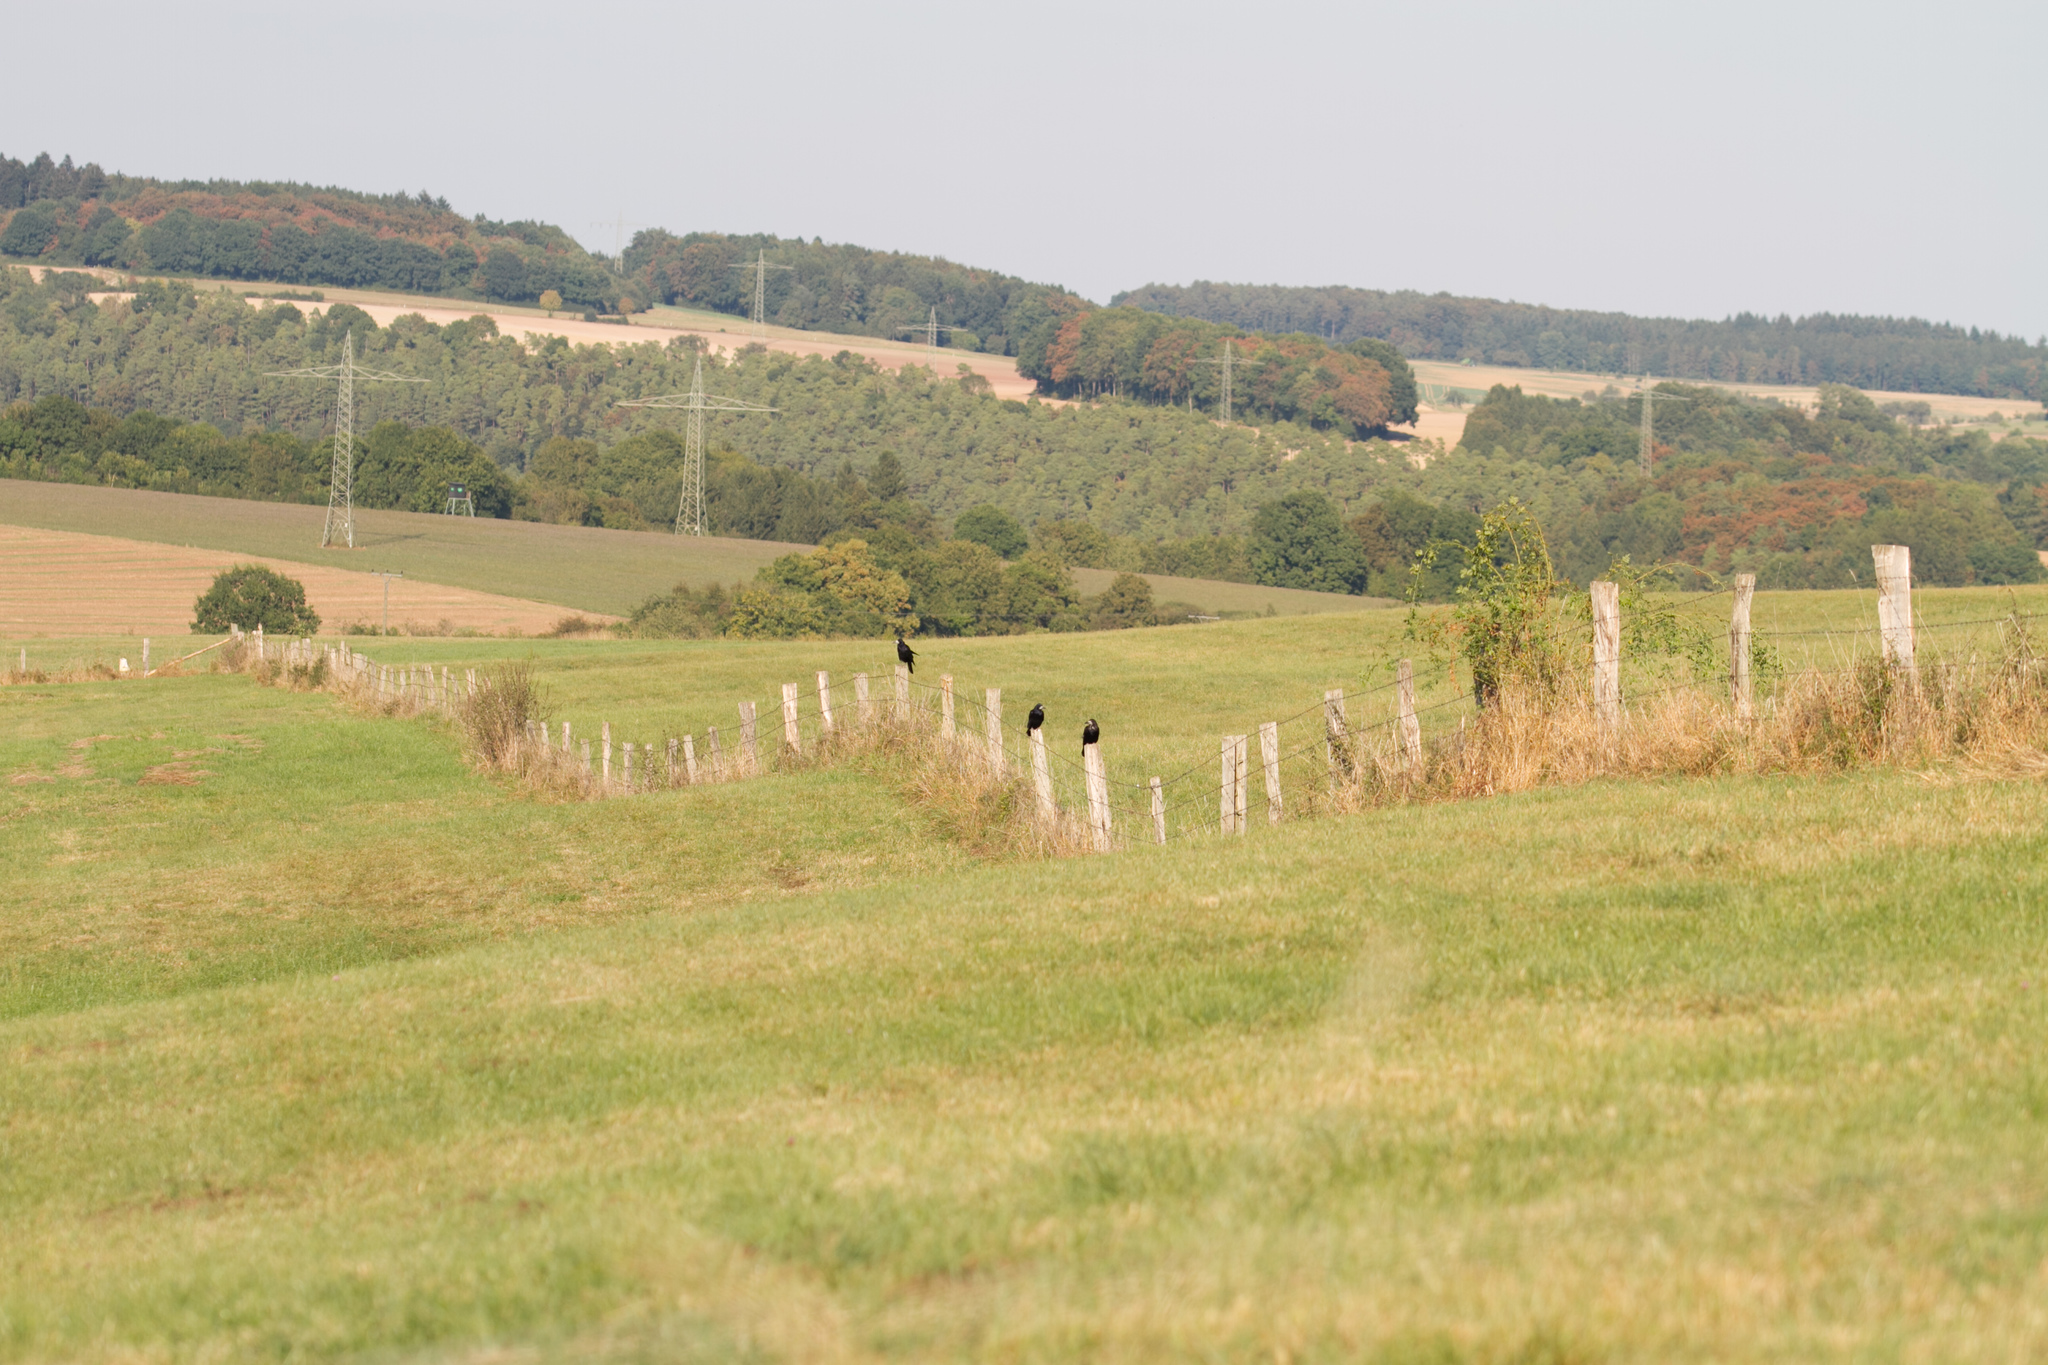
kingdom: Animalia
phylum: Chordata
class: Aves
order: Passeriformes
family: Corvidae
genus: Corvus
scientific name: Corvus frugilegus
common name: Rook
